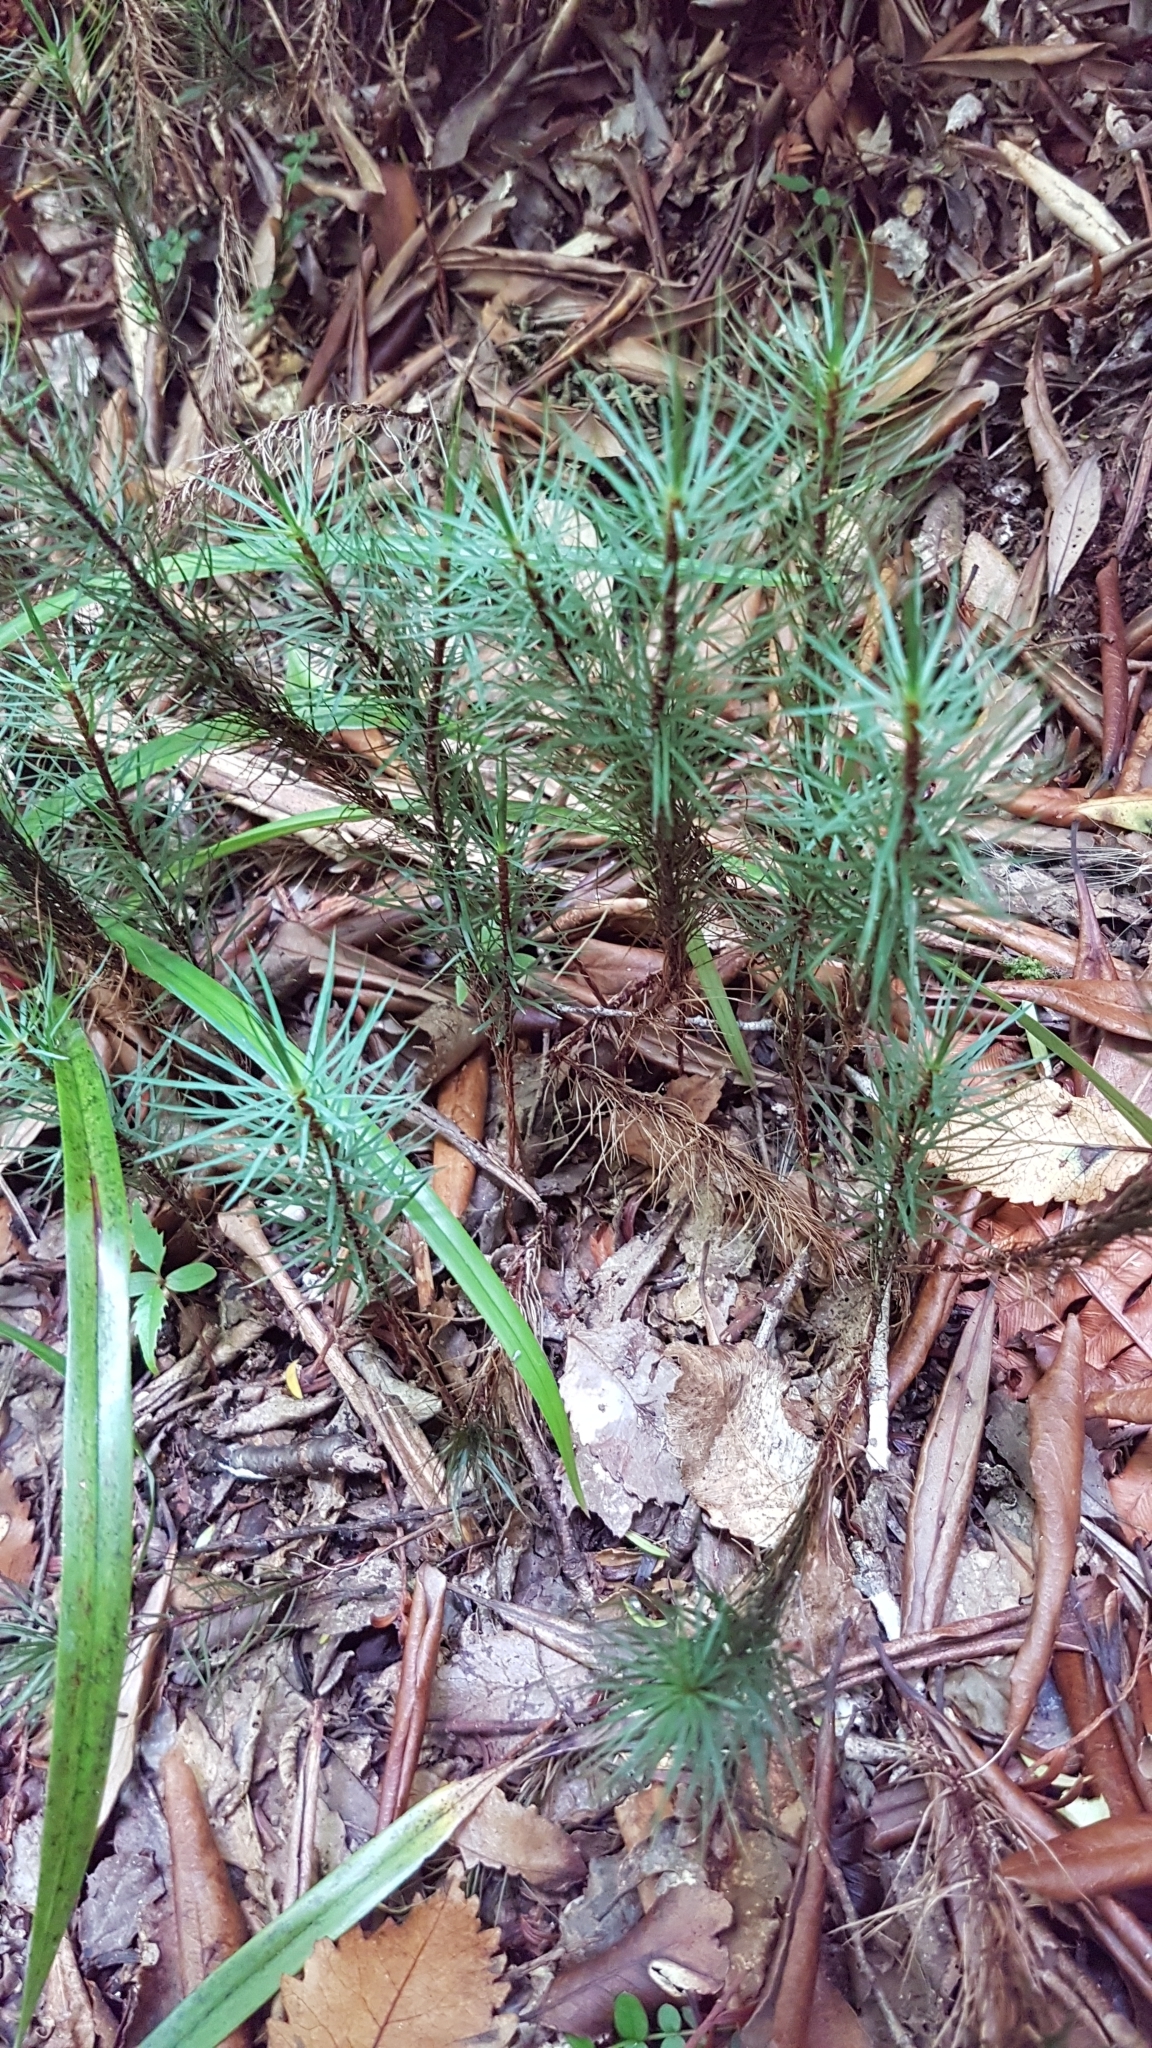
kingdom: Plantae
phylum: Bryophyta
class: Polytrichopsida
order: Polytrichales
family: Polytrichaceae
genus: Dawsonia
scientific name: Dawsonia superba
